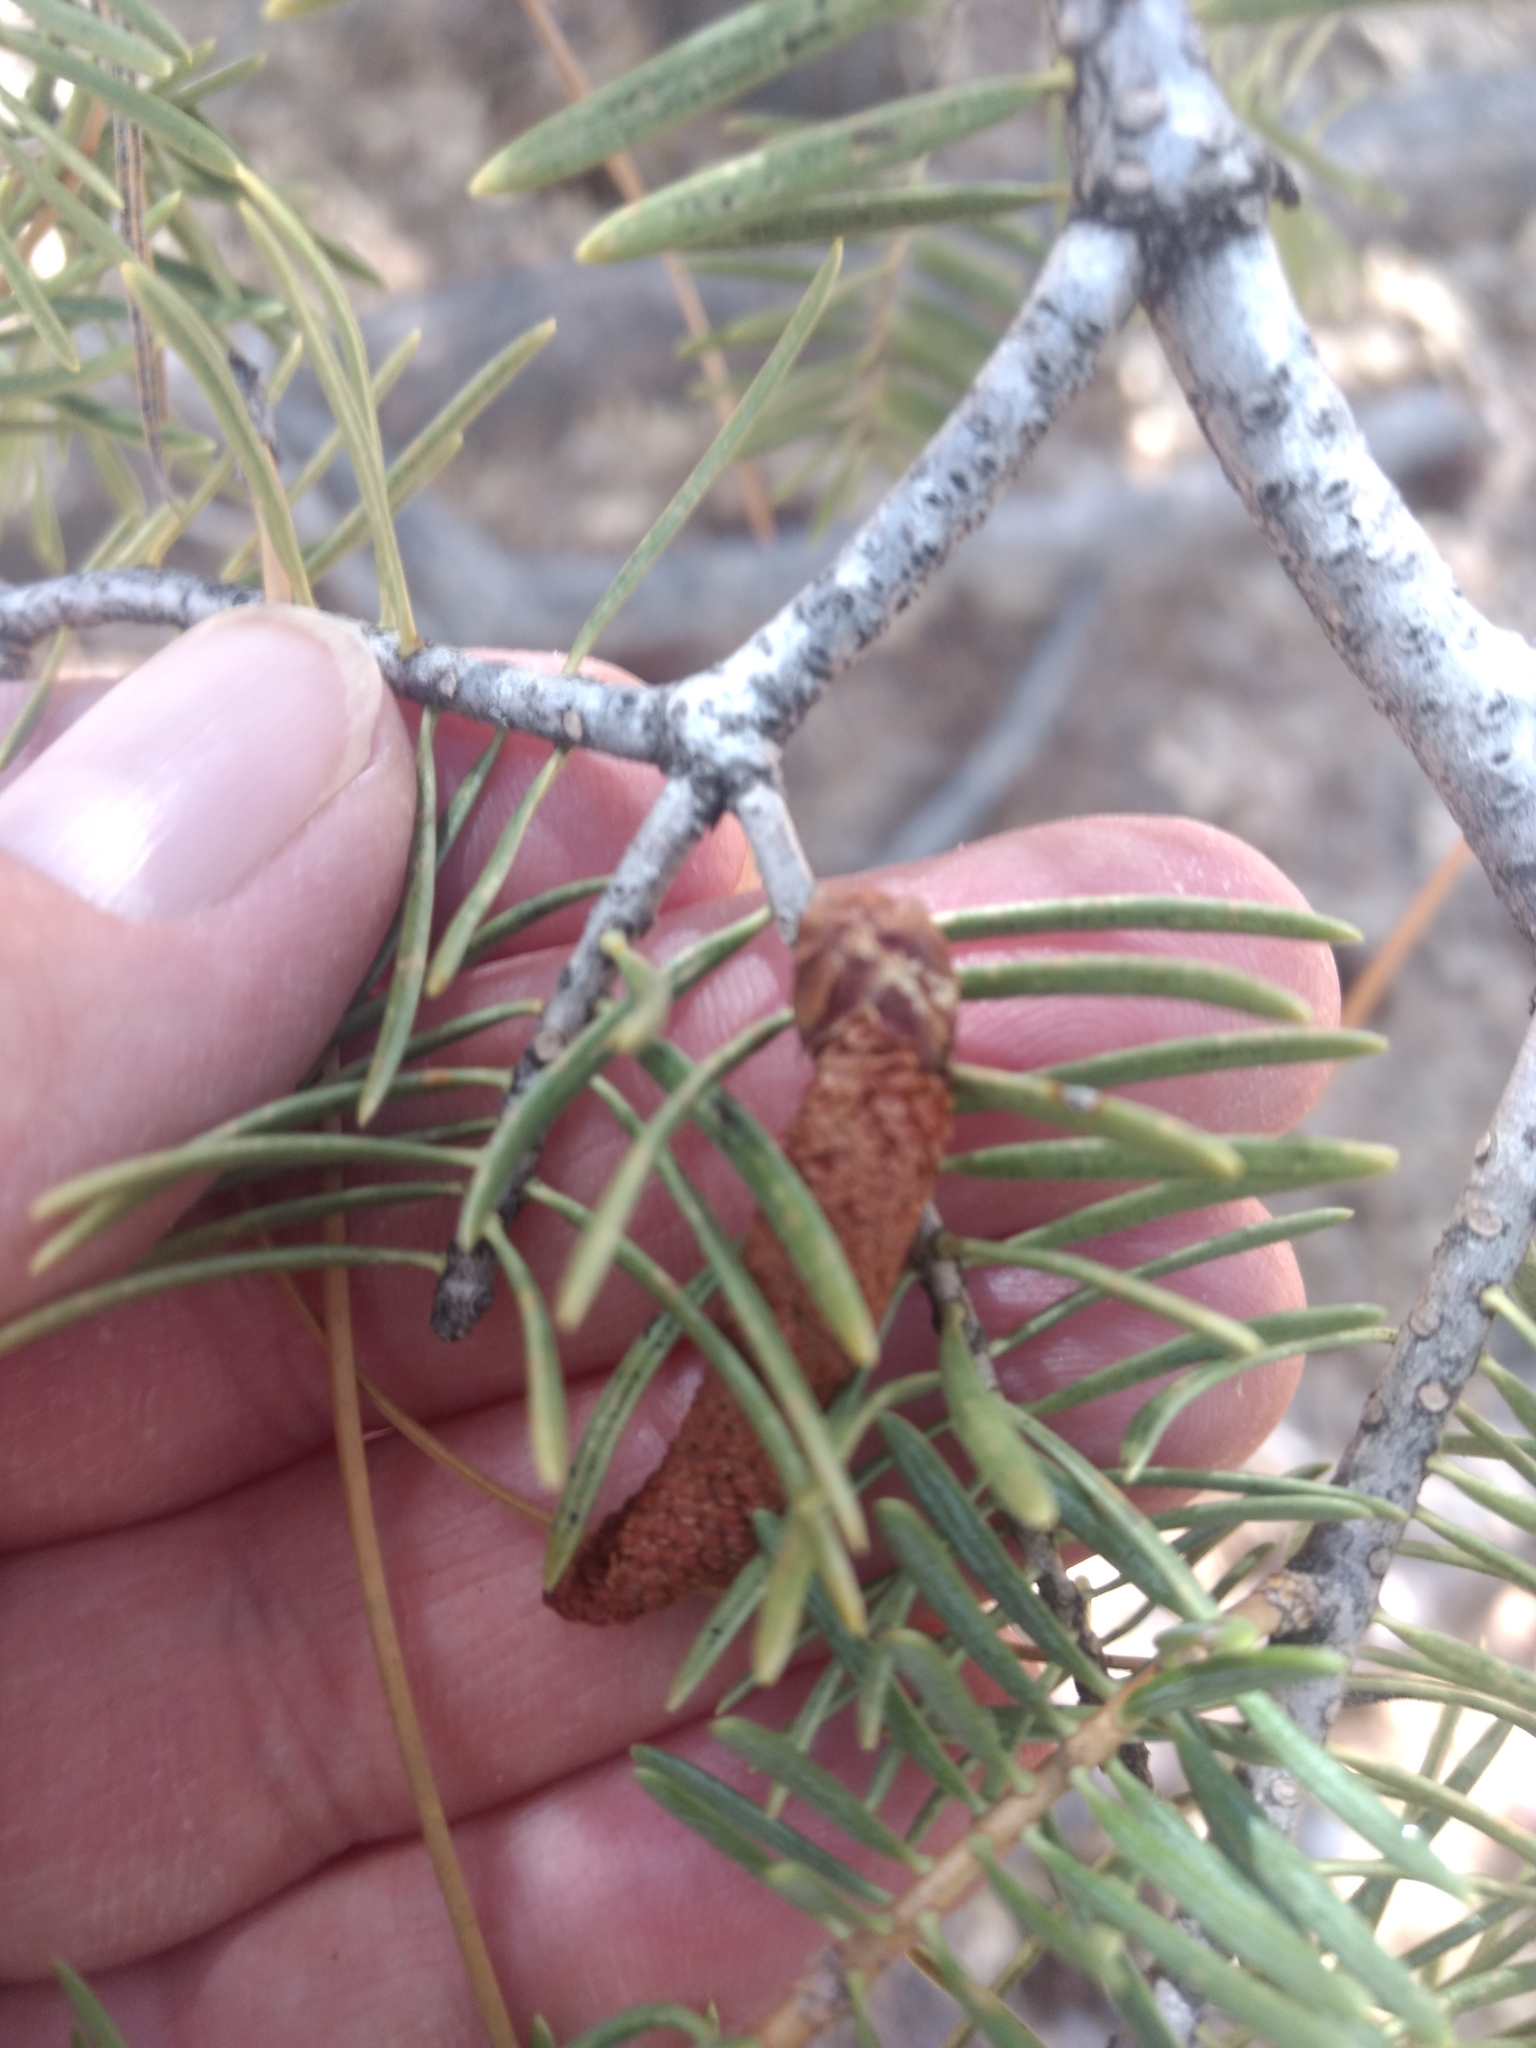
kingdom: Plantae
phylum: Tracheophyta
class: Pinopsida
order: Pinales
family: Pinaceae
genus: Abies
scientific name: Abies concolor
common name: Colorado fir
